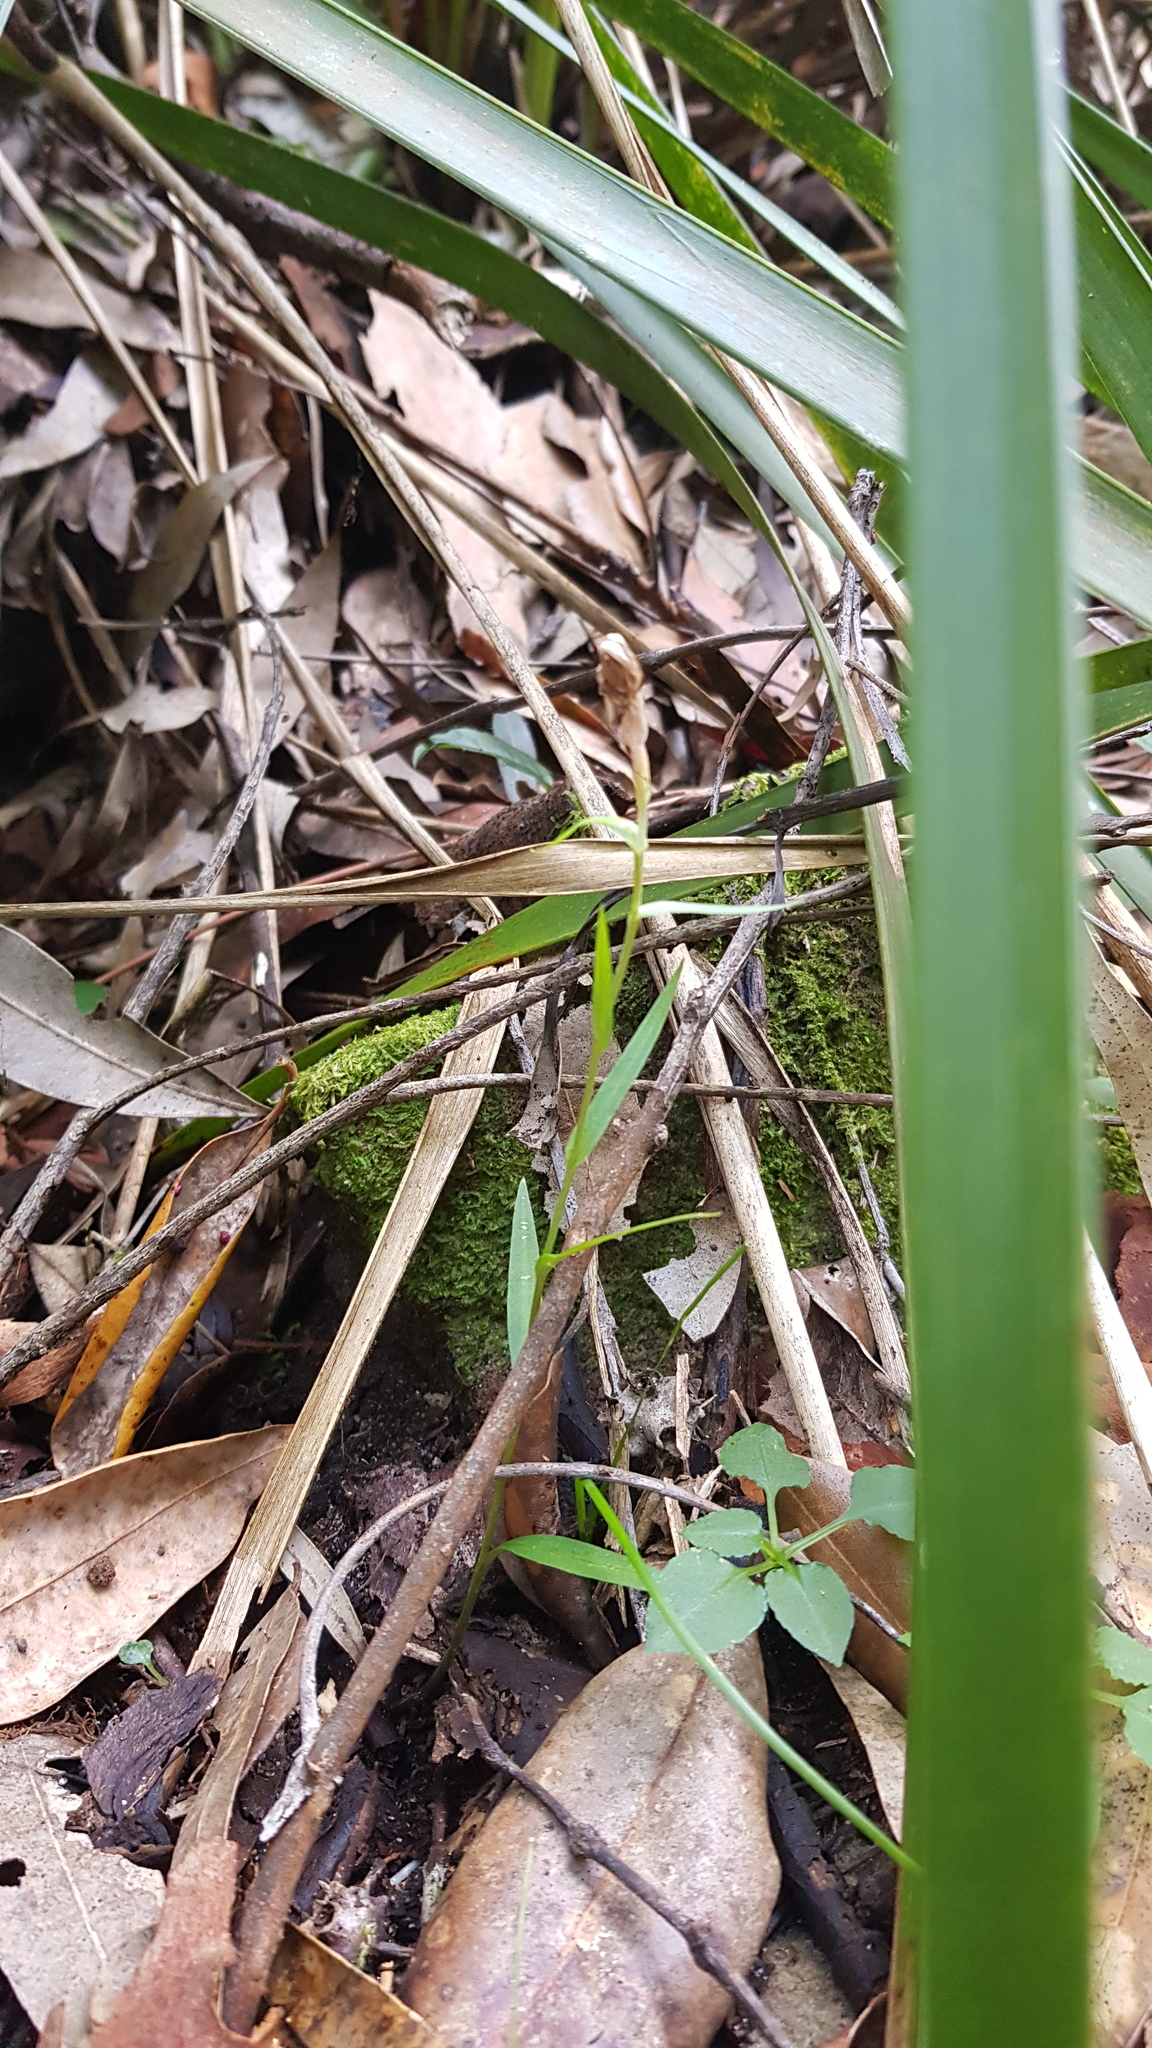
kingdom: Plantae
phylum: Tracheophyta
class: Liliopsida
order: Asparagales
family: Orchidaceae
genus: Pterostylis
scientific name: Pterostylis grandiflora
